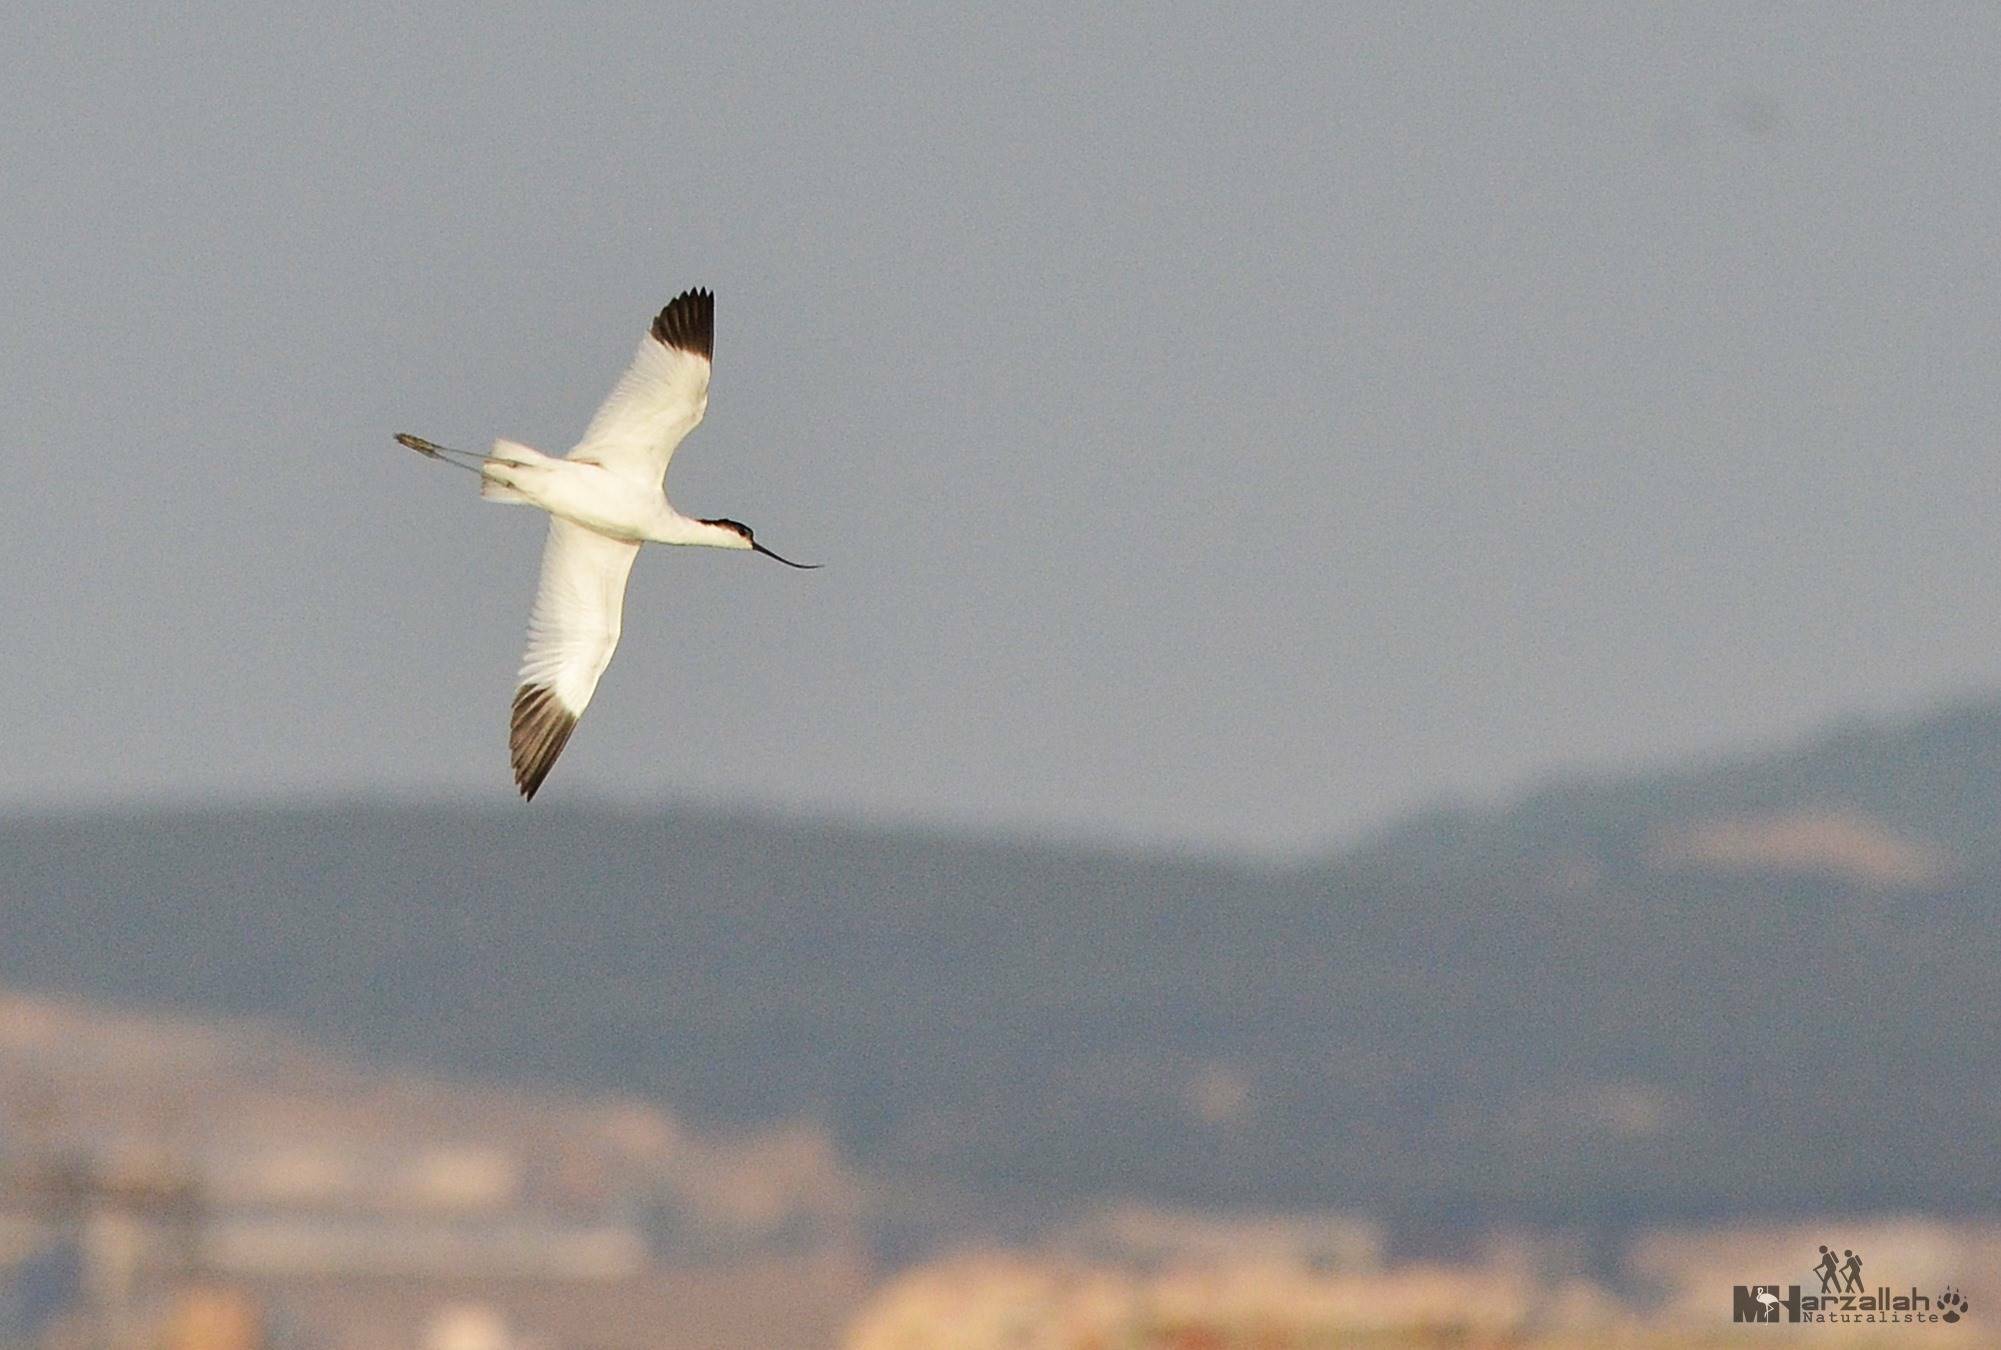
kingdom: Animalia
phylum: Chordata
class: Aves
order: Charadriiformes
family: Recurvirostridae
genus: Recurvirostra
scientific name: Recurvirostra avosetta
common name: Pied avocet
